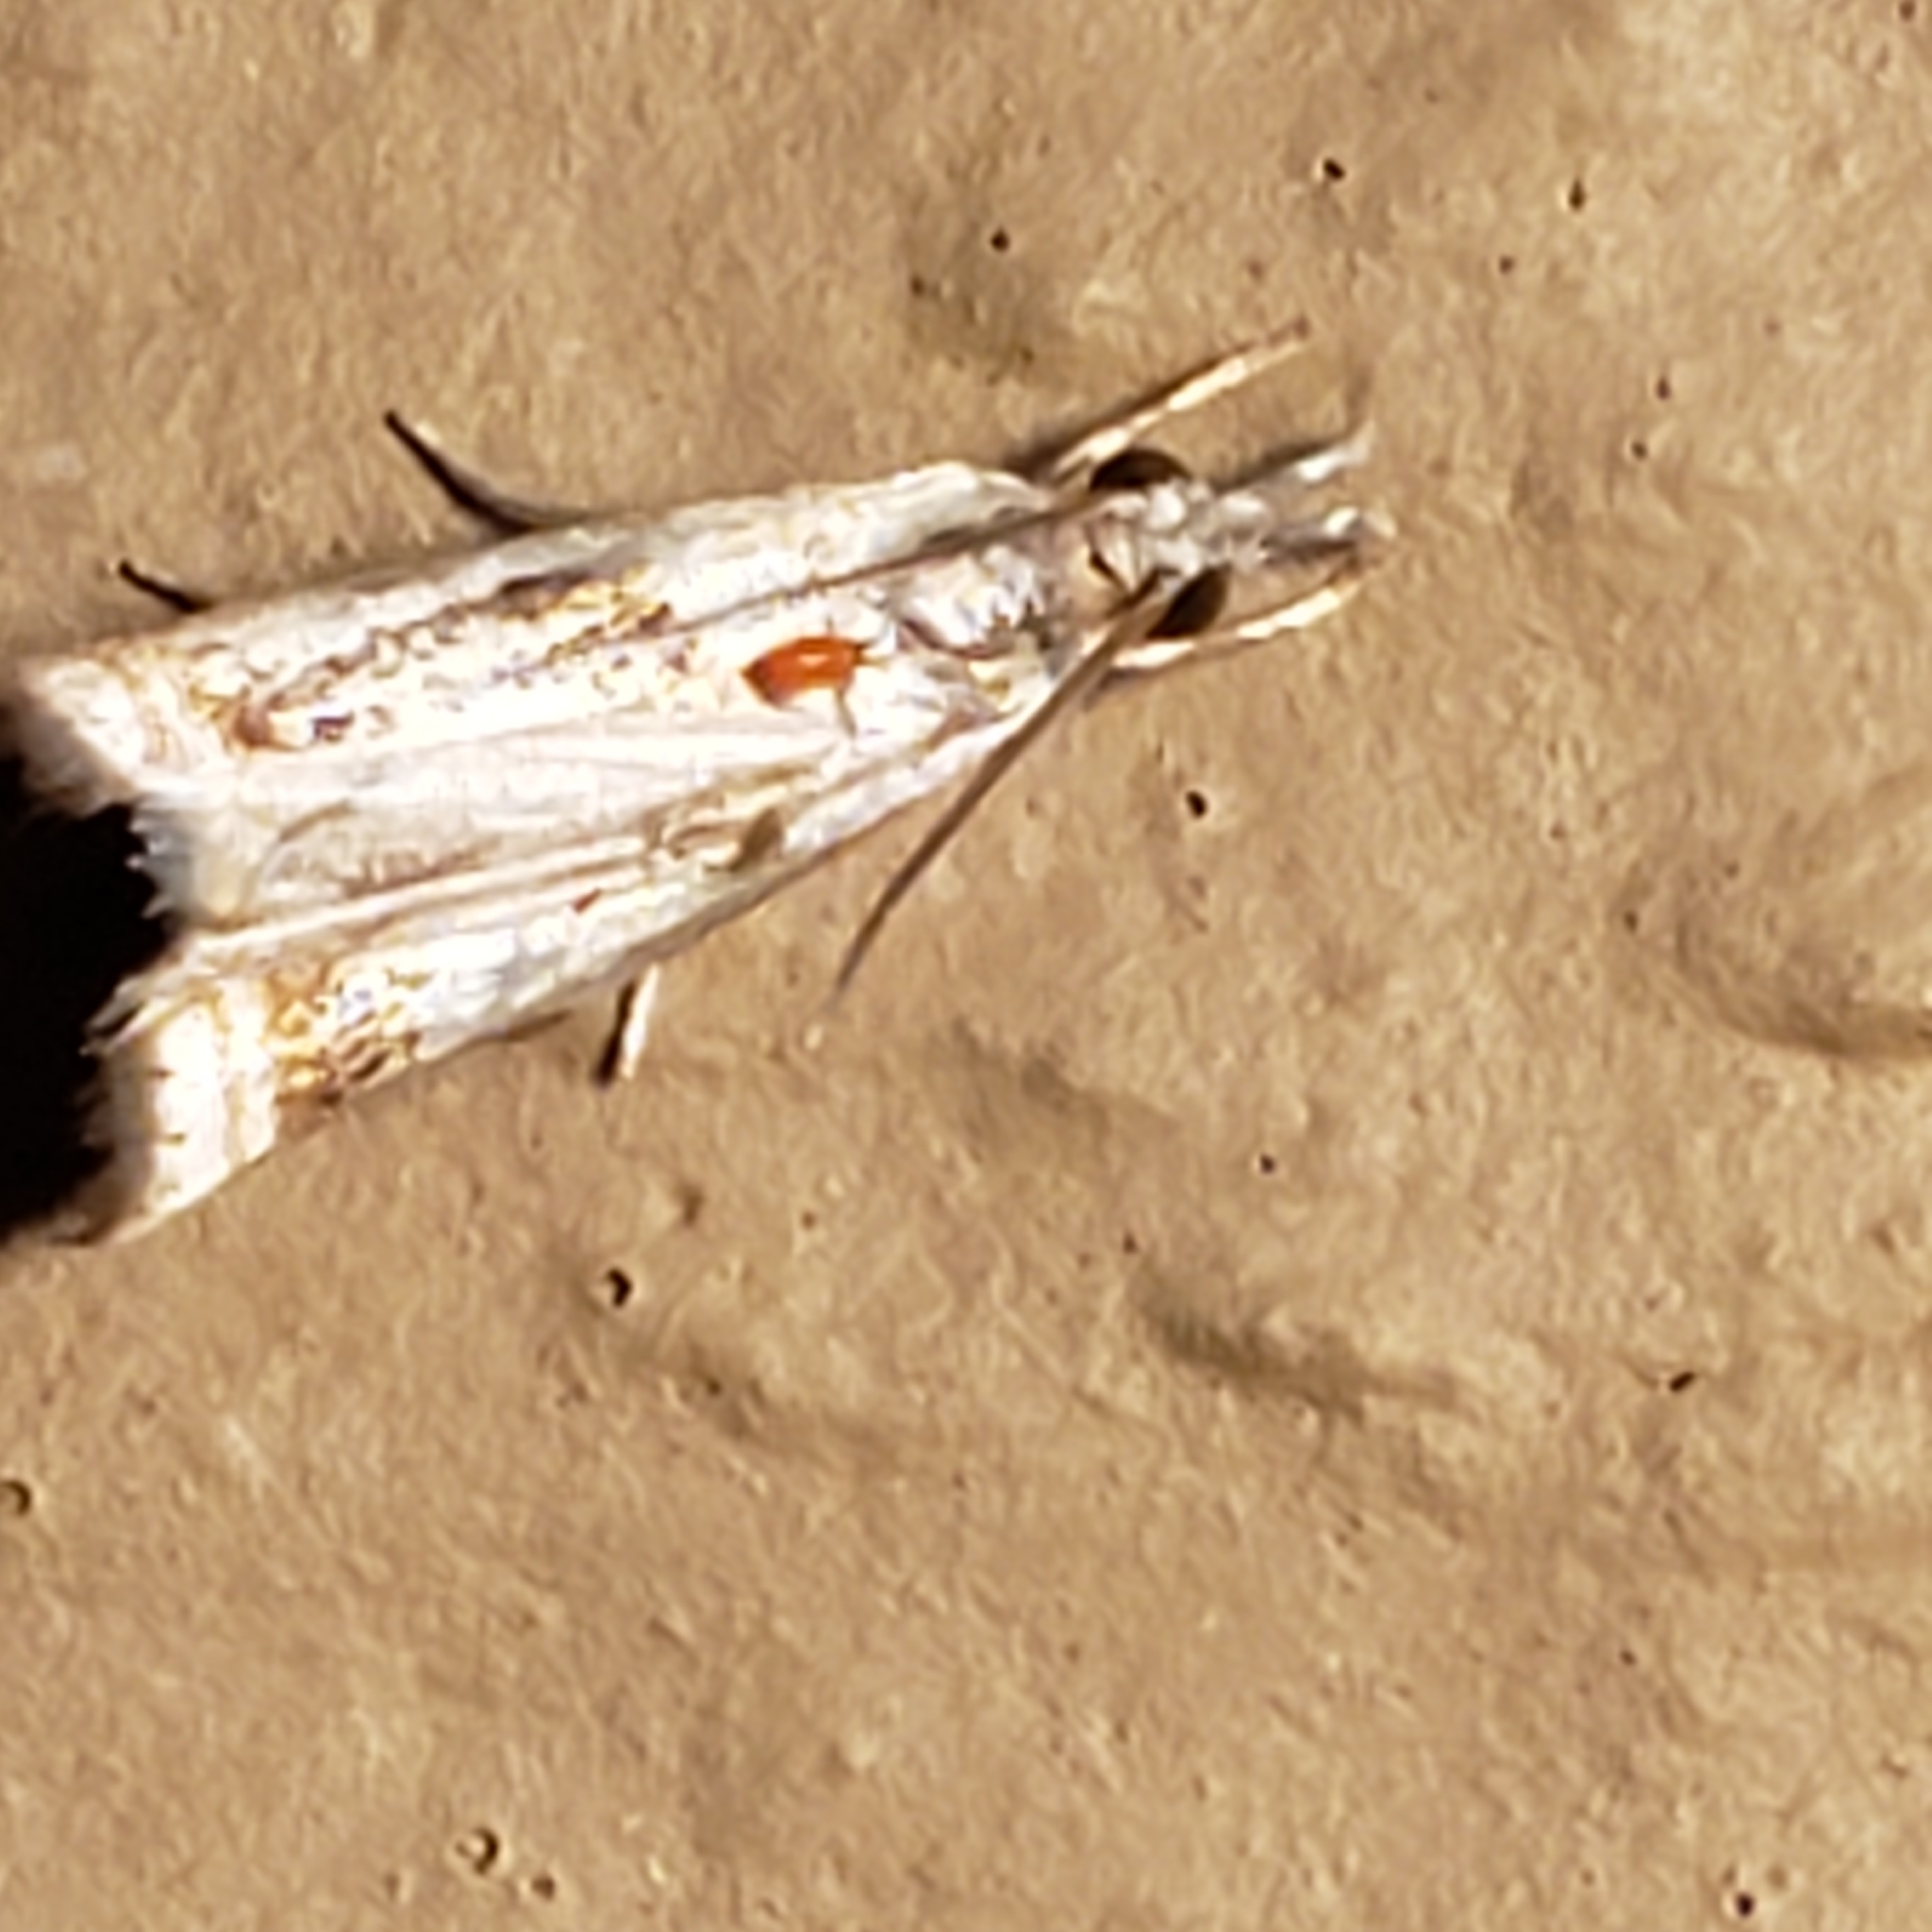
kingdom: Animalia
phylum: Arthropoda
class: Insecta
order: Lepidoptera
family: Crambidae
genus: Microcrambus
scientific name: Microcrambus elegans
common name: Elegant grass-veneer
